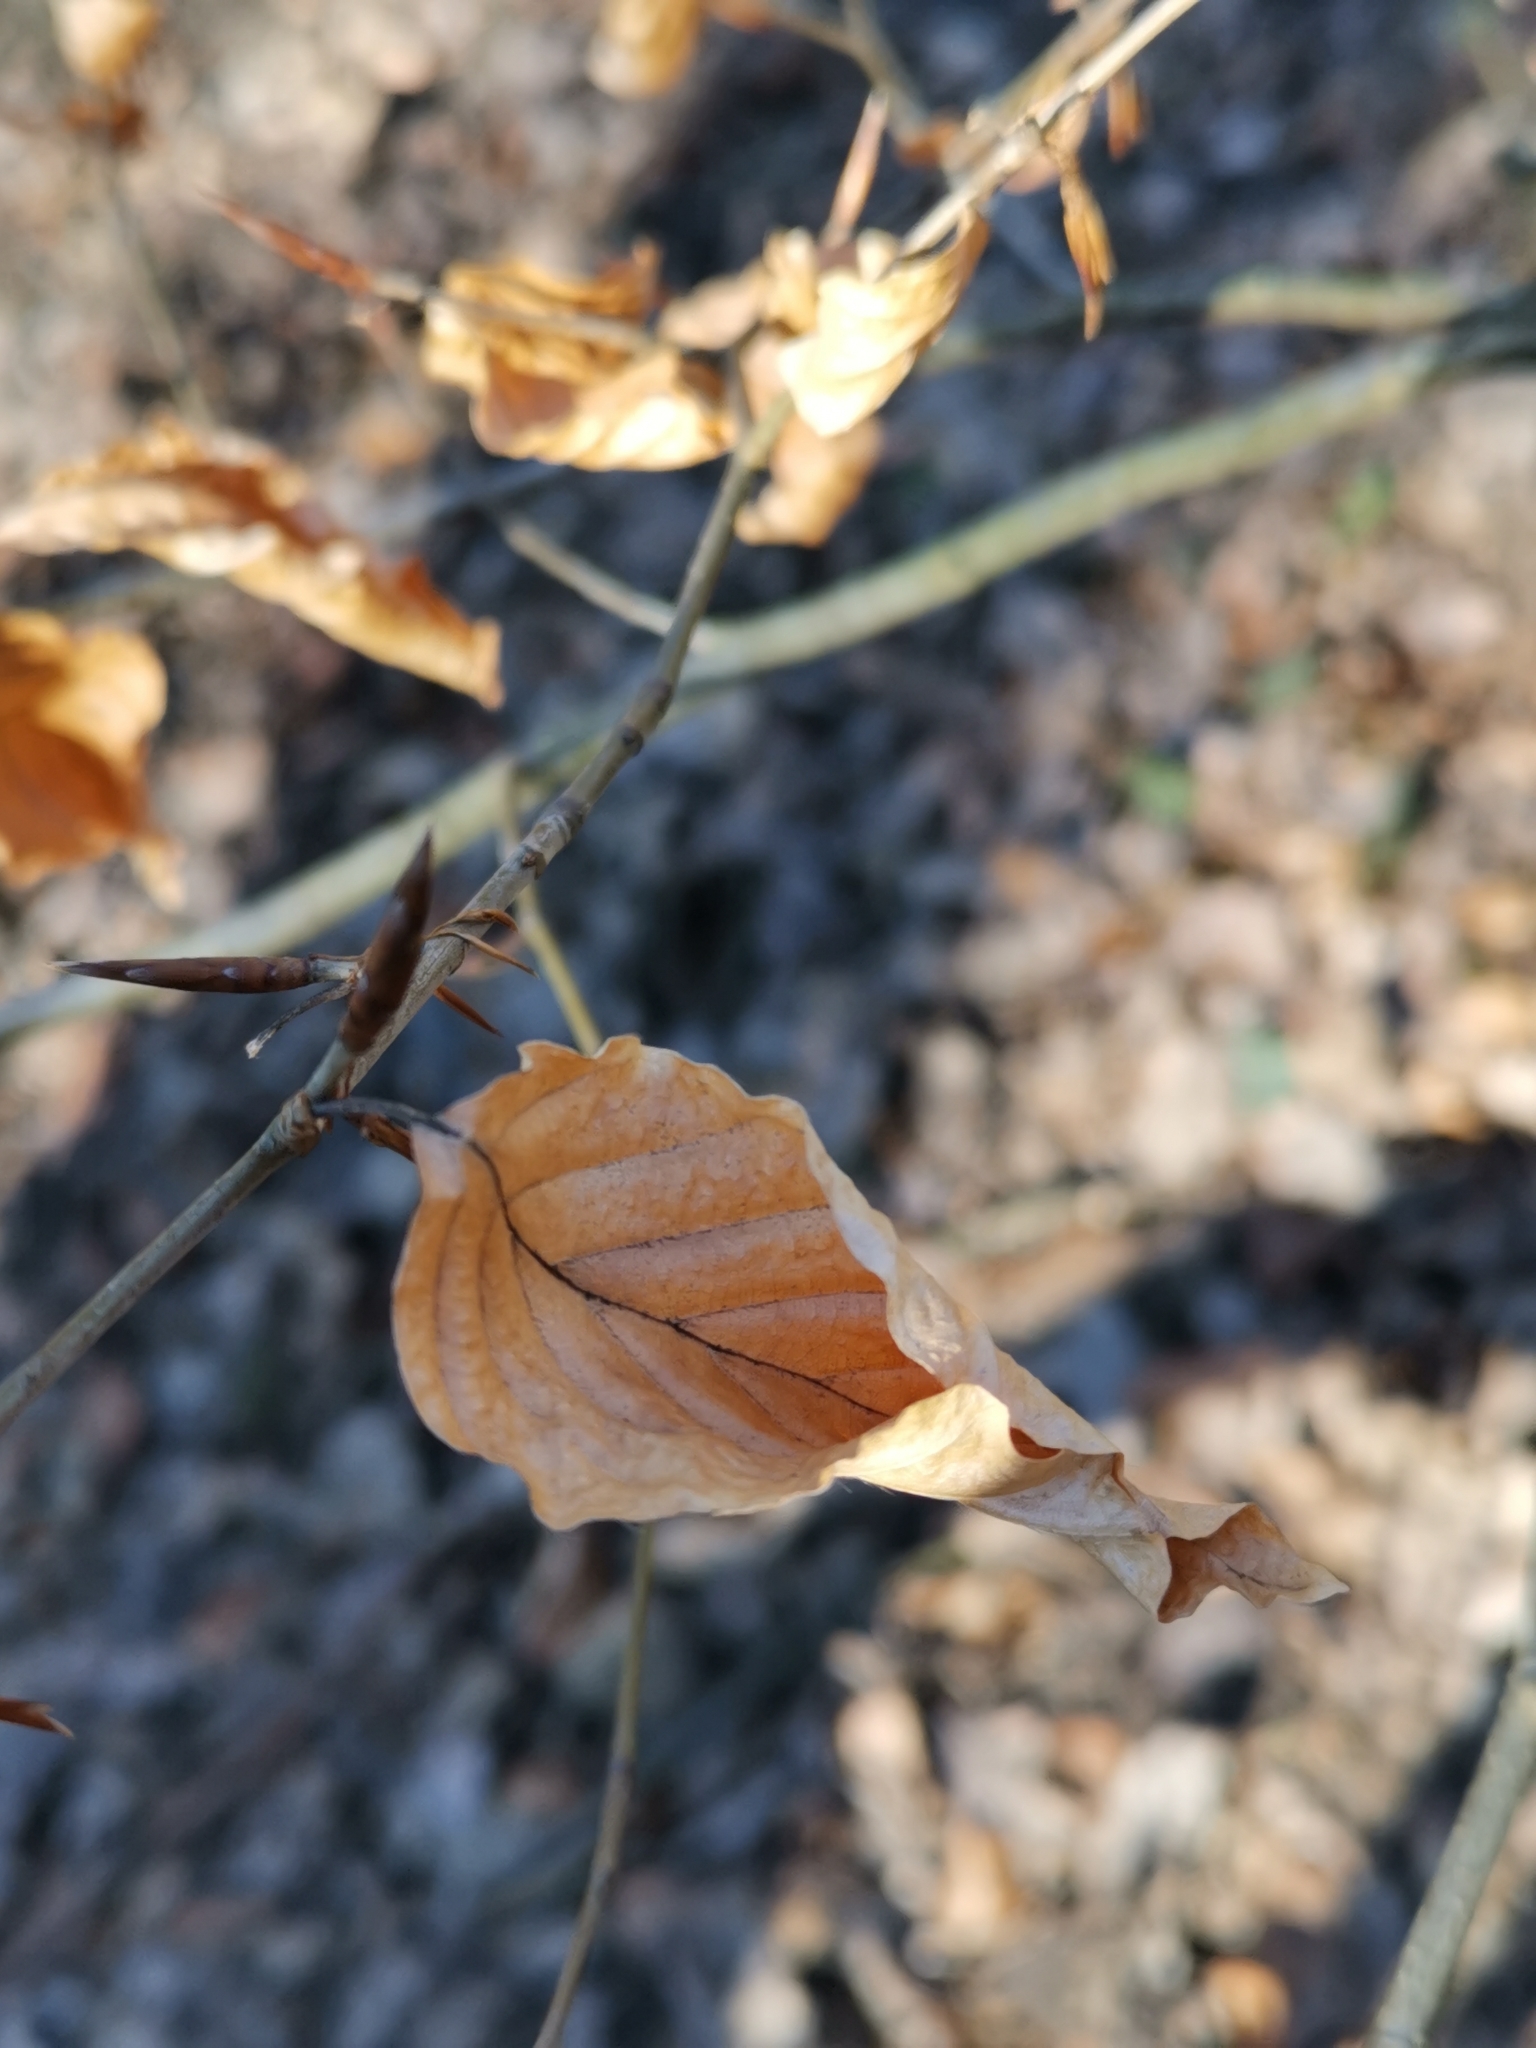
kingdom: Plantae
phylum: Tracheophyta
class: Magnoliopsida
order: Fagales
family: Fagaceae
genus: Fagus
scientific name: Fagus sylvatica
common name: Beech
